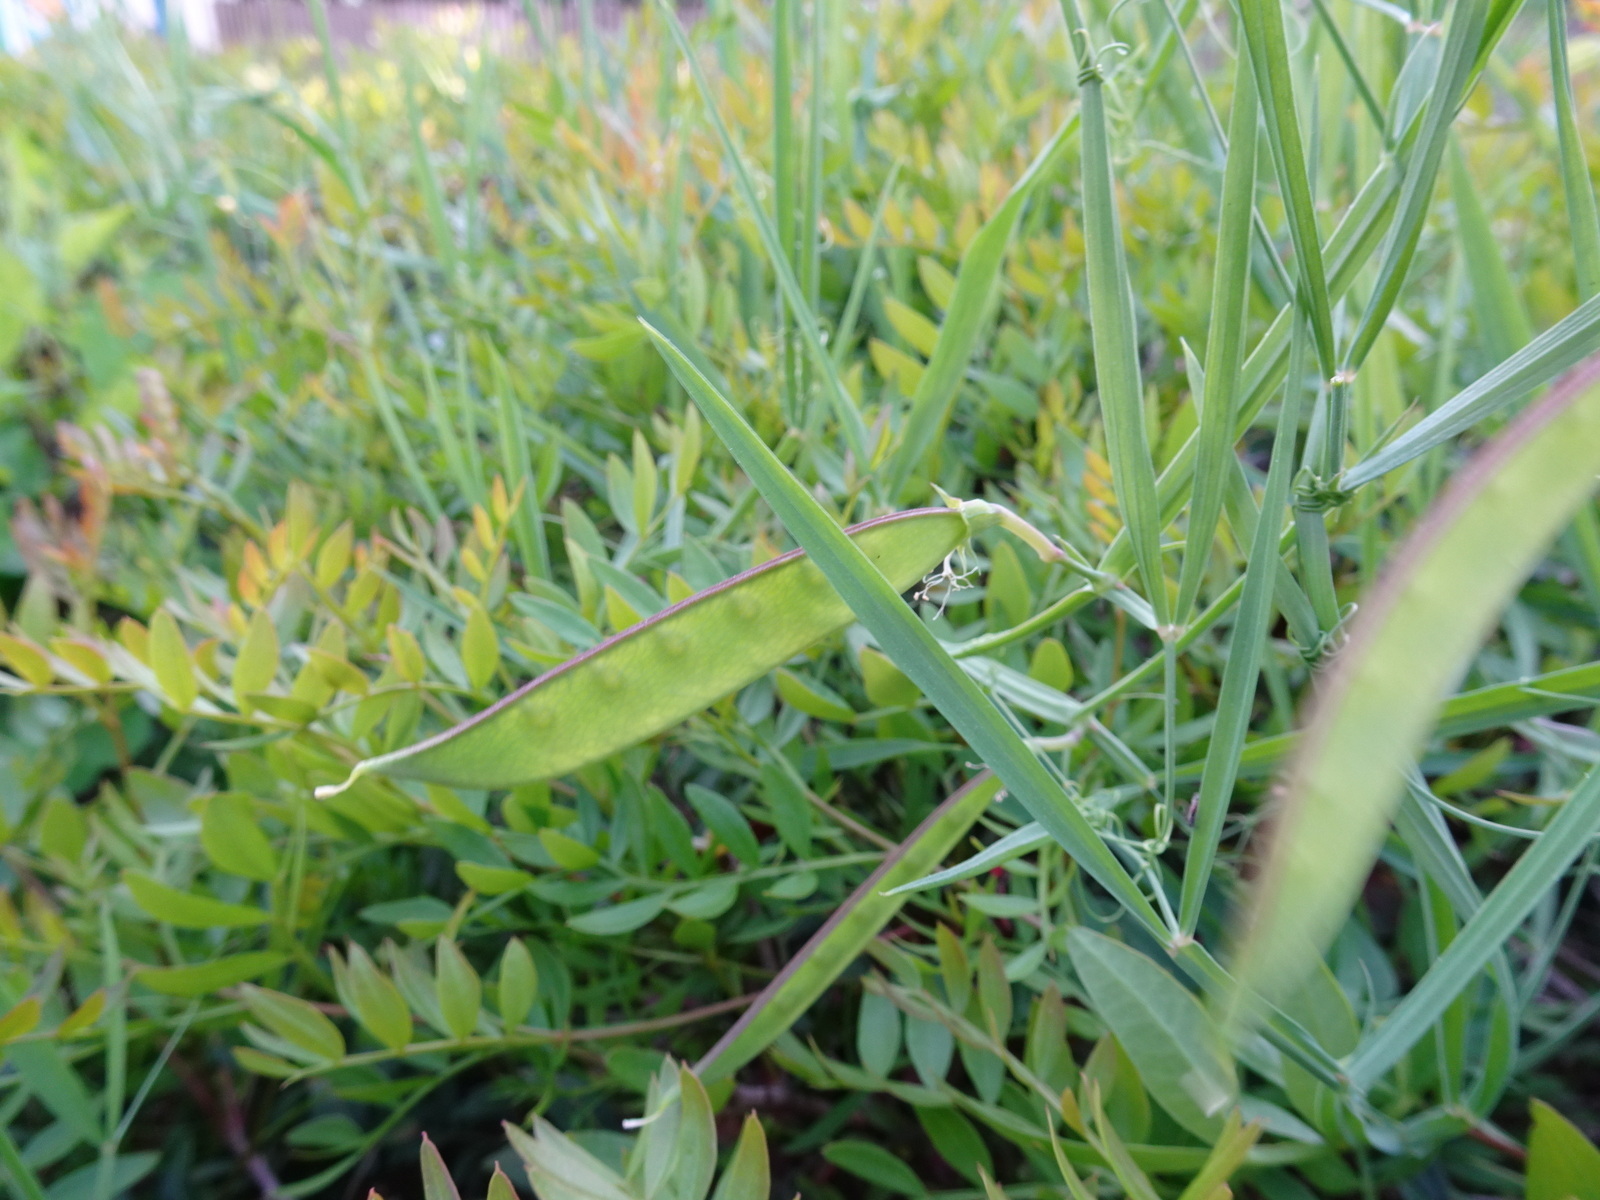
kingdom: Plantae
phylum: Tracheophyta
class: Magnoliopsida
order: Fabales
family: Fabaceae
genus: Lathyrus
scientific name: Lathyrus annuus
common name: Fodder pea
